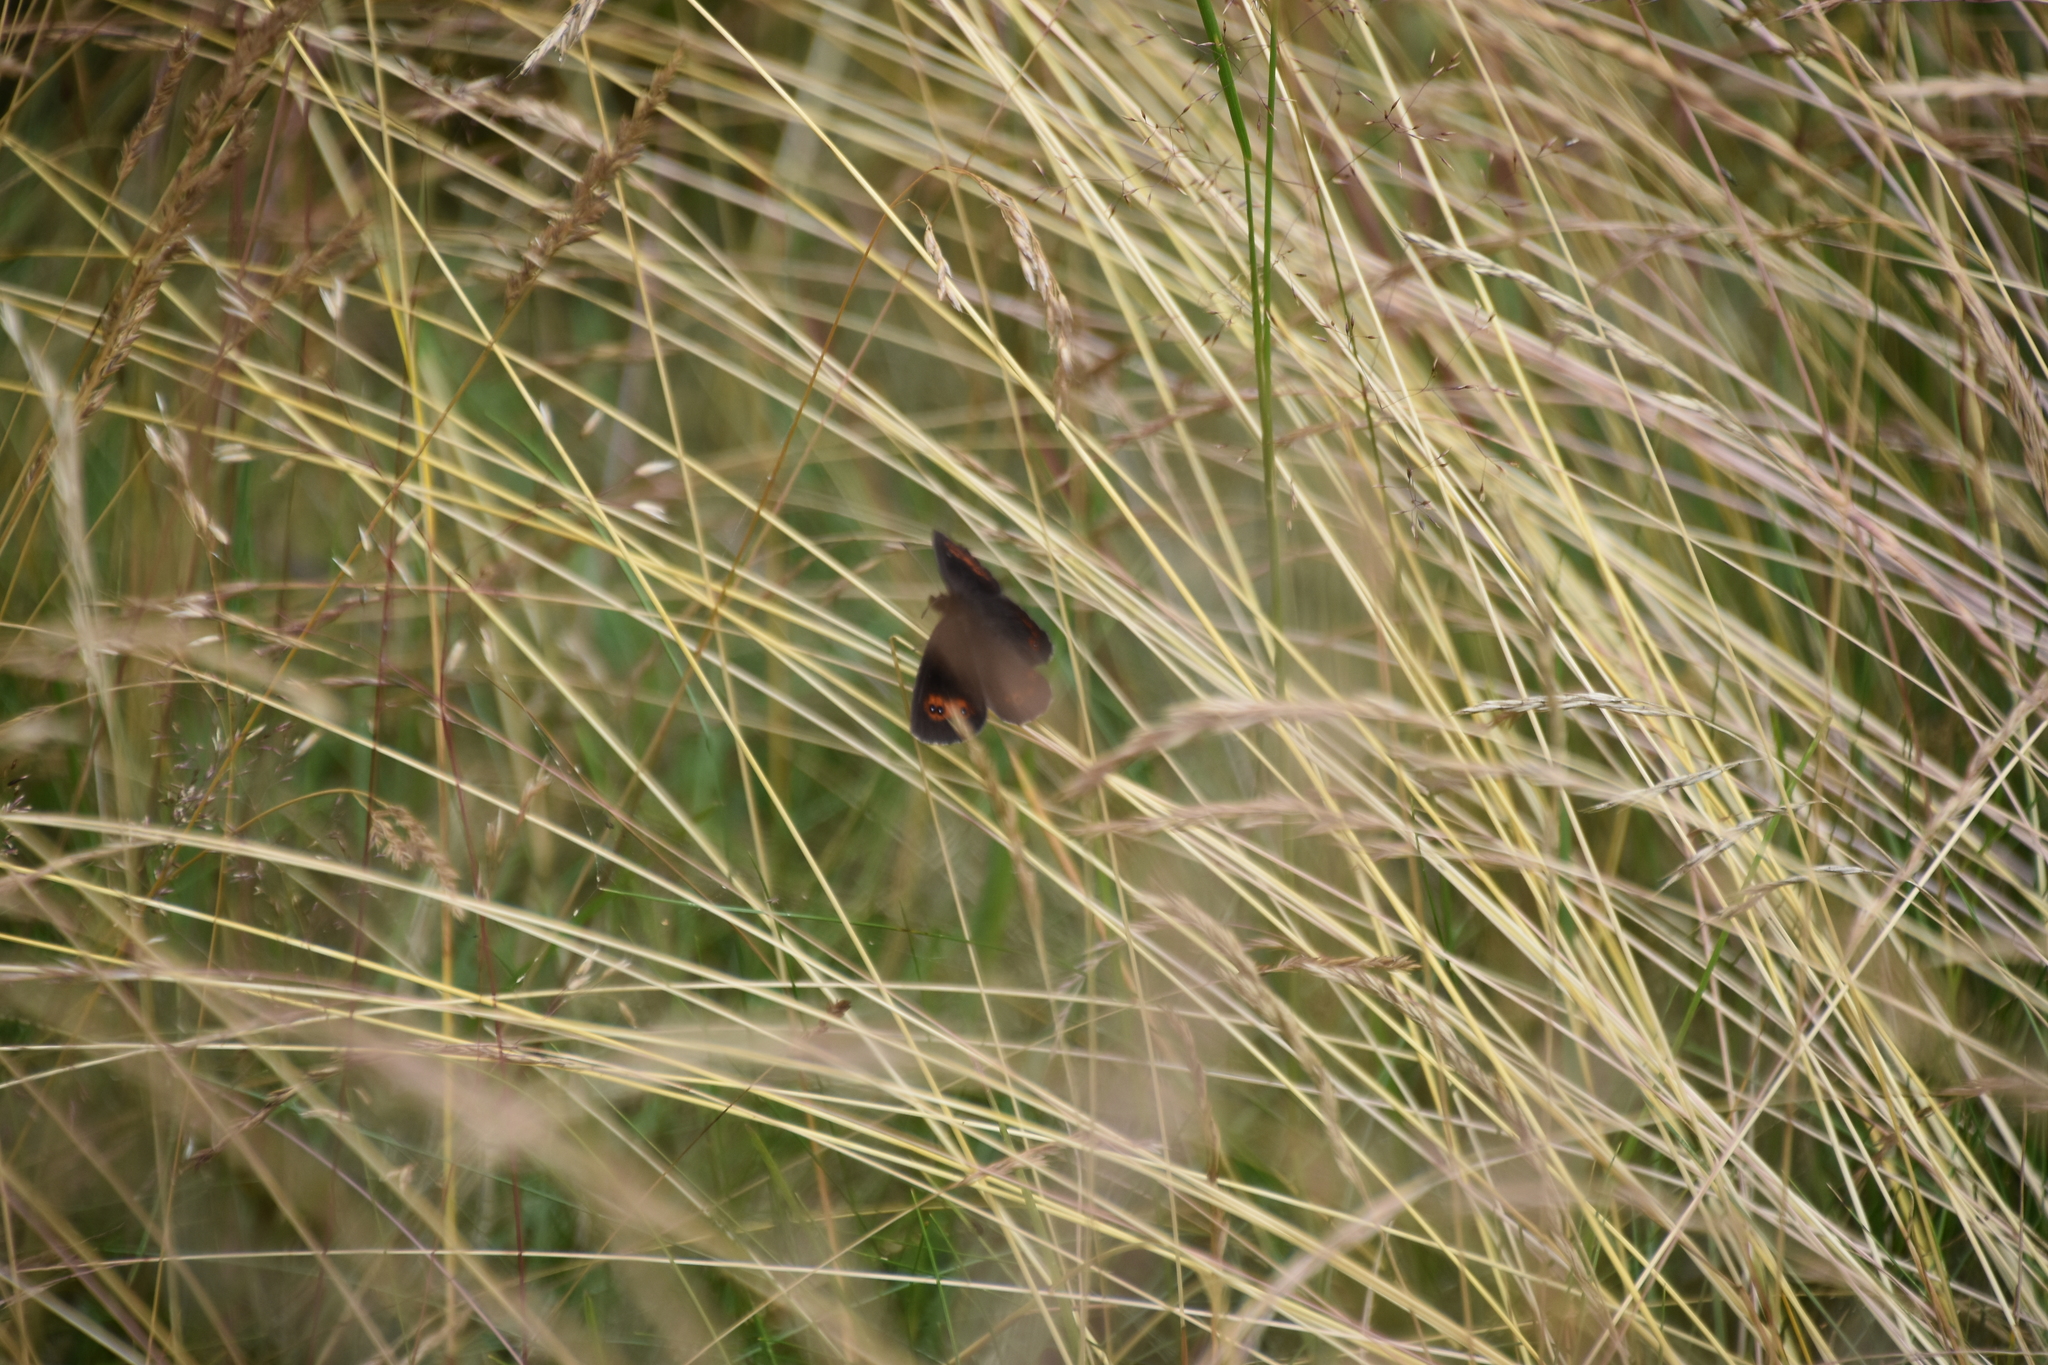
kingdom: Animalia
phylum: Arthropoda
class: Insecta
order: Lepidoptera
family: Nymphalidae
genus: Erebia
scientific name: Erebia aethiops
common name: Scotch argus
